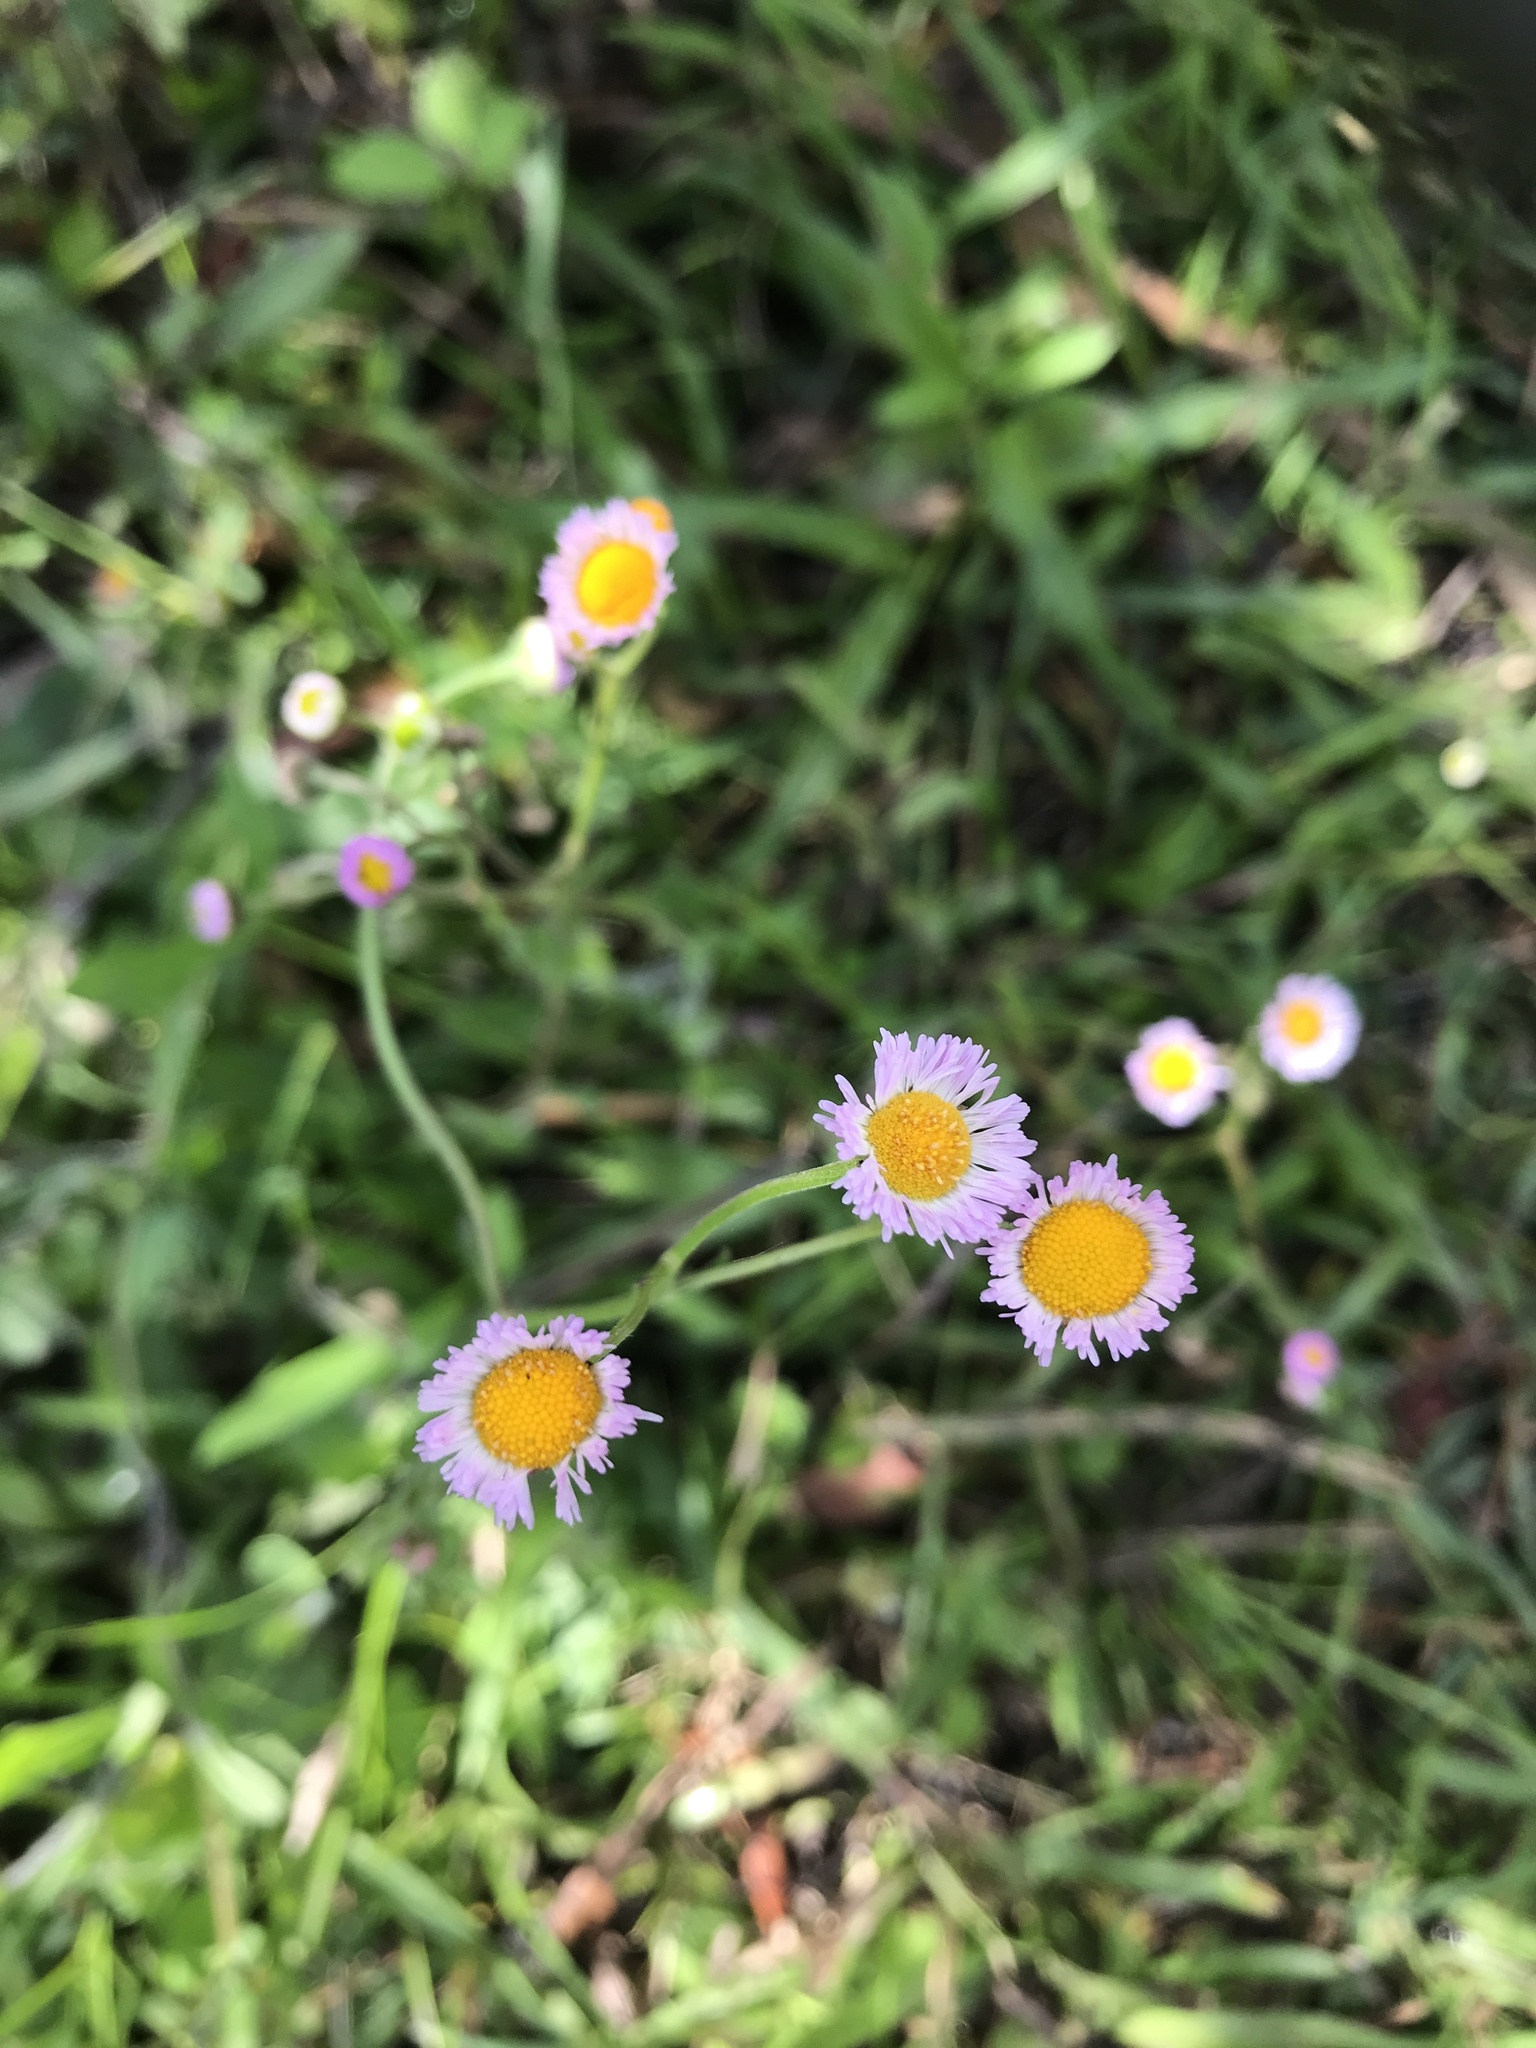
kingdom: Plantae
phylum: Tracheophyta
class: Magnoliopsida
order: Asterales
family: Asteraceae
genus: Erigeron
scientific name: Erigeron quercifolius
